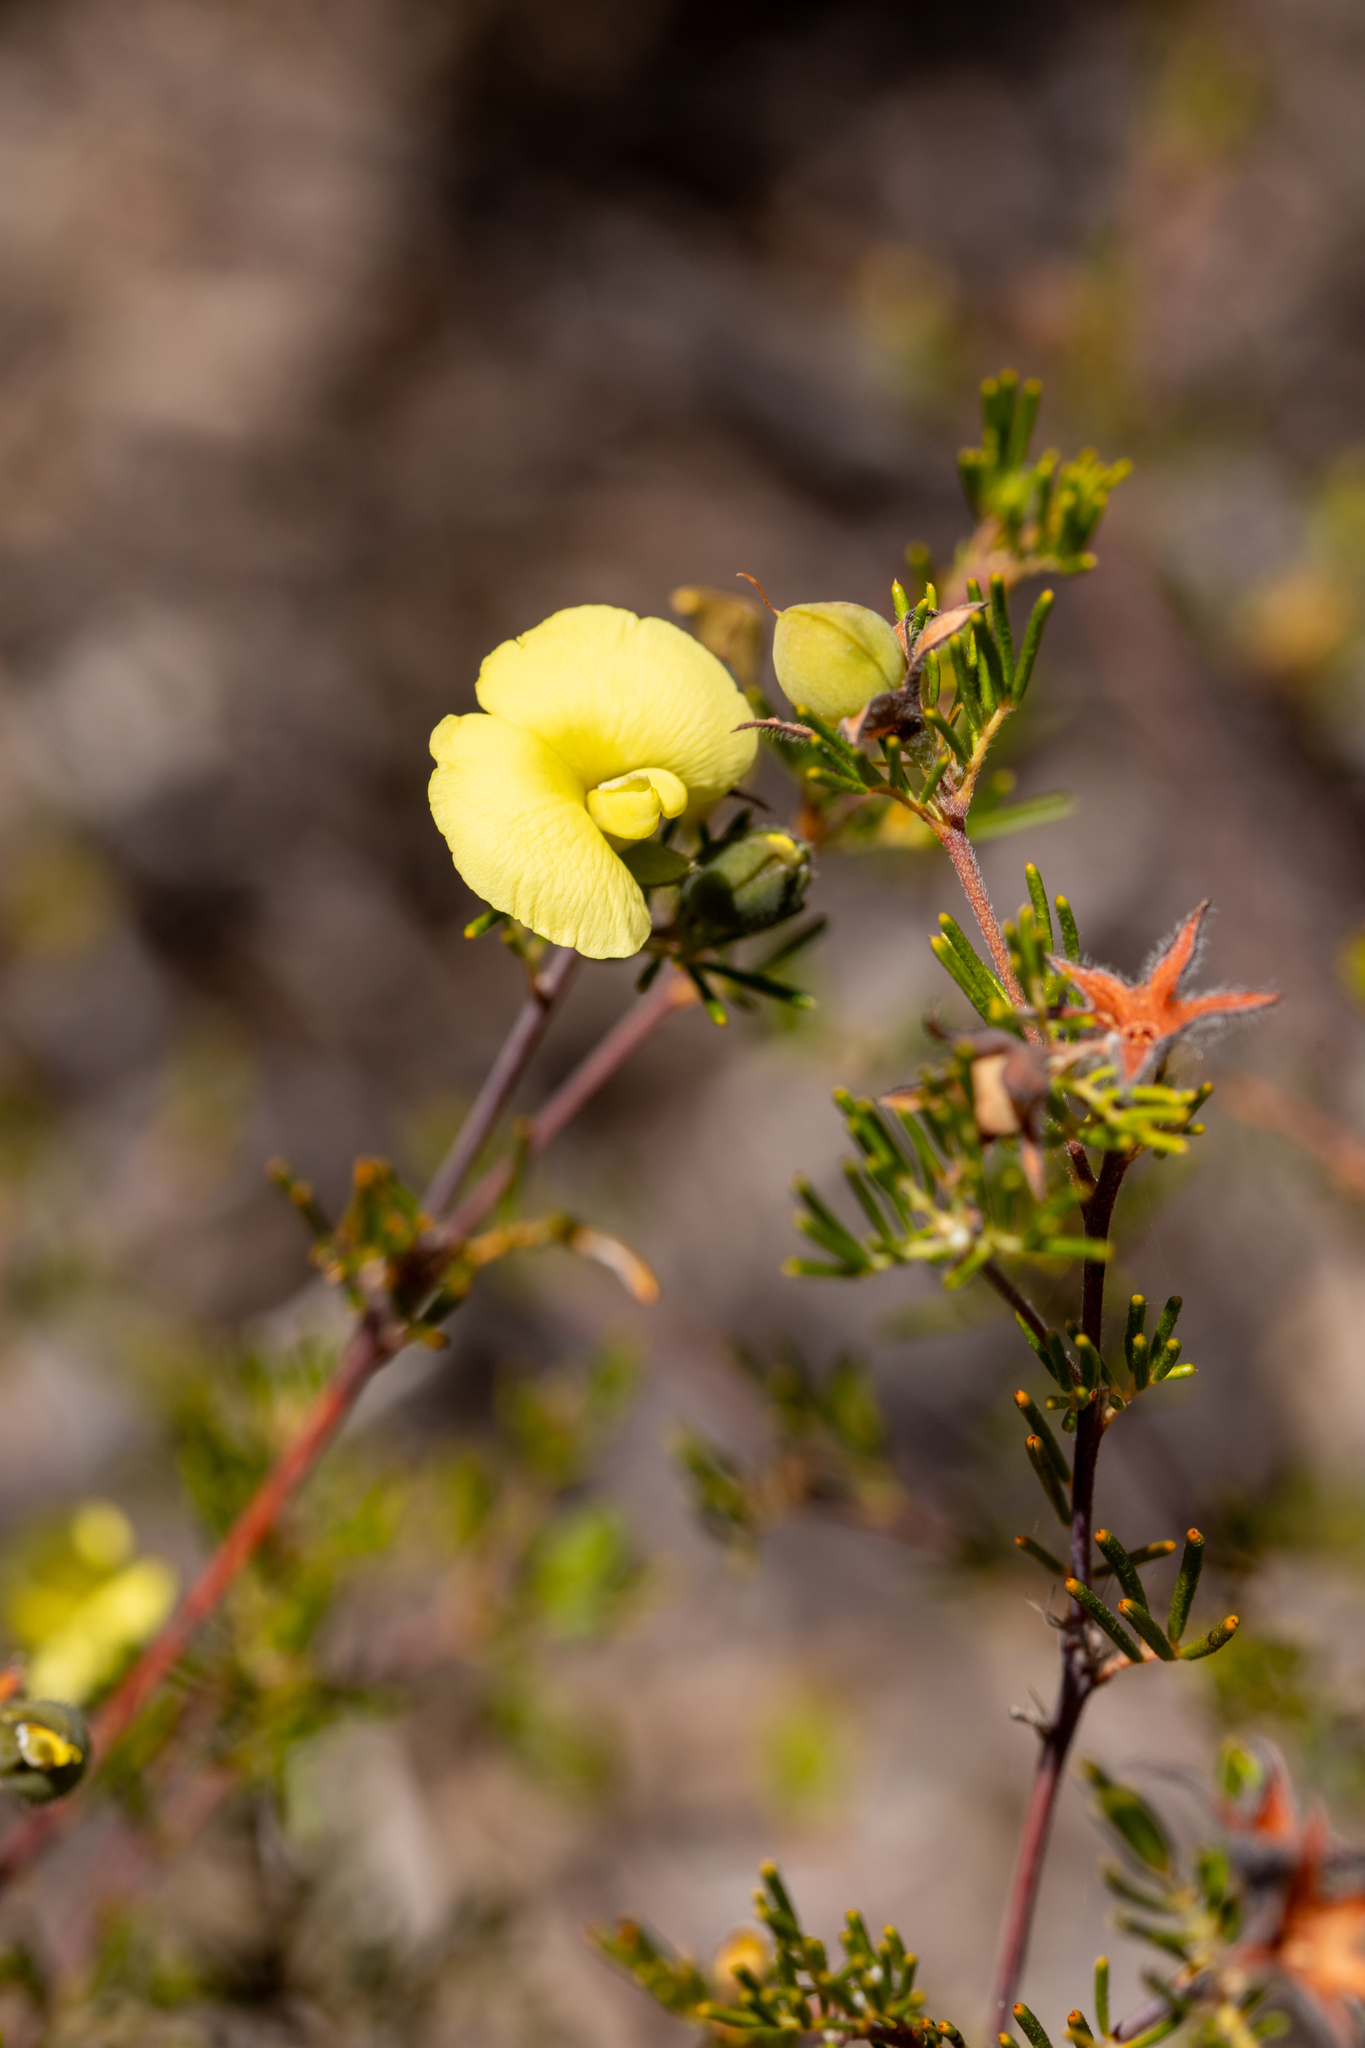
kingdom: Plantae
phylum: Tracheophyta
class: Magnoliopsida
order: Fabales
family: Fabaceae
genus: Gompholobium
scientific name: Gompholobium tomentosum
